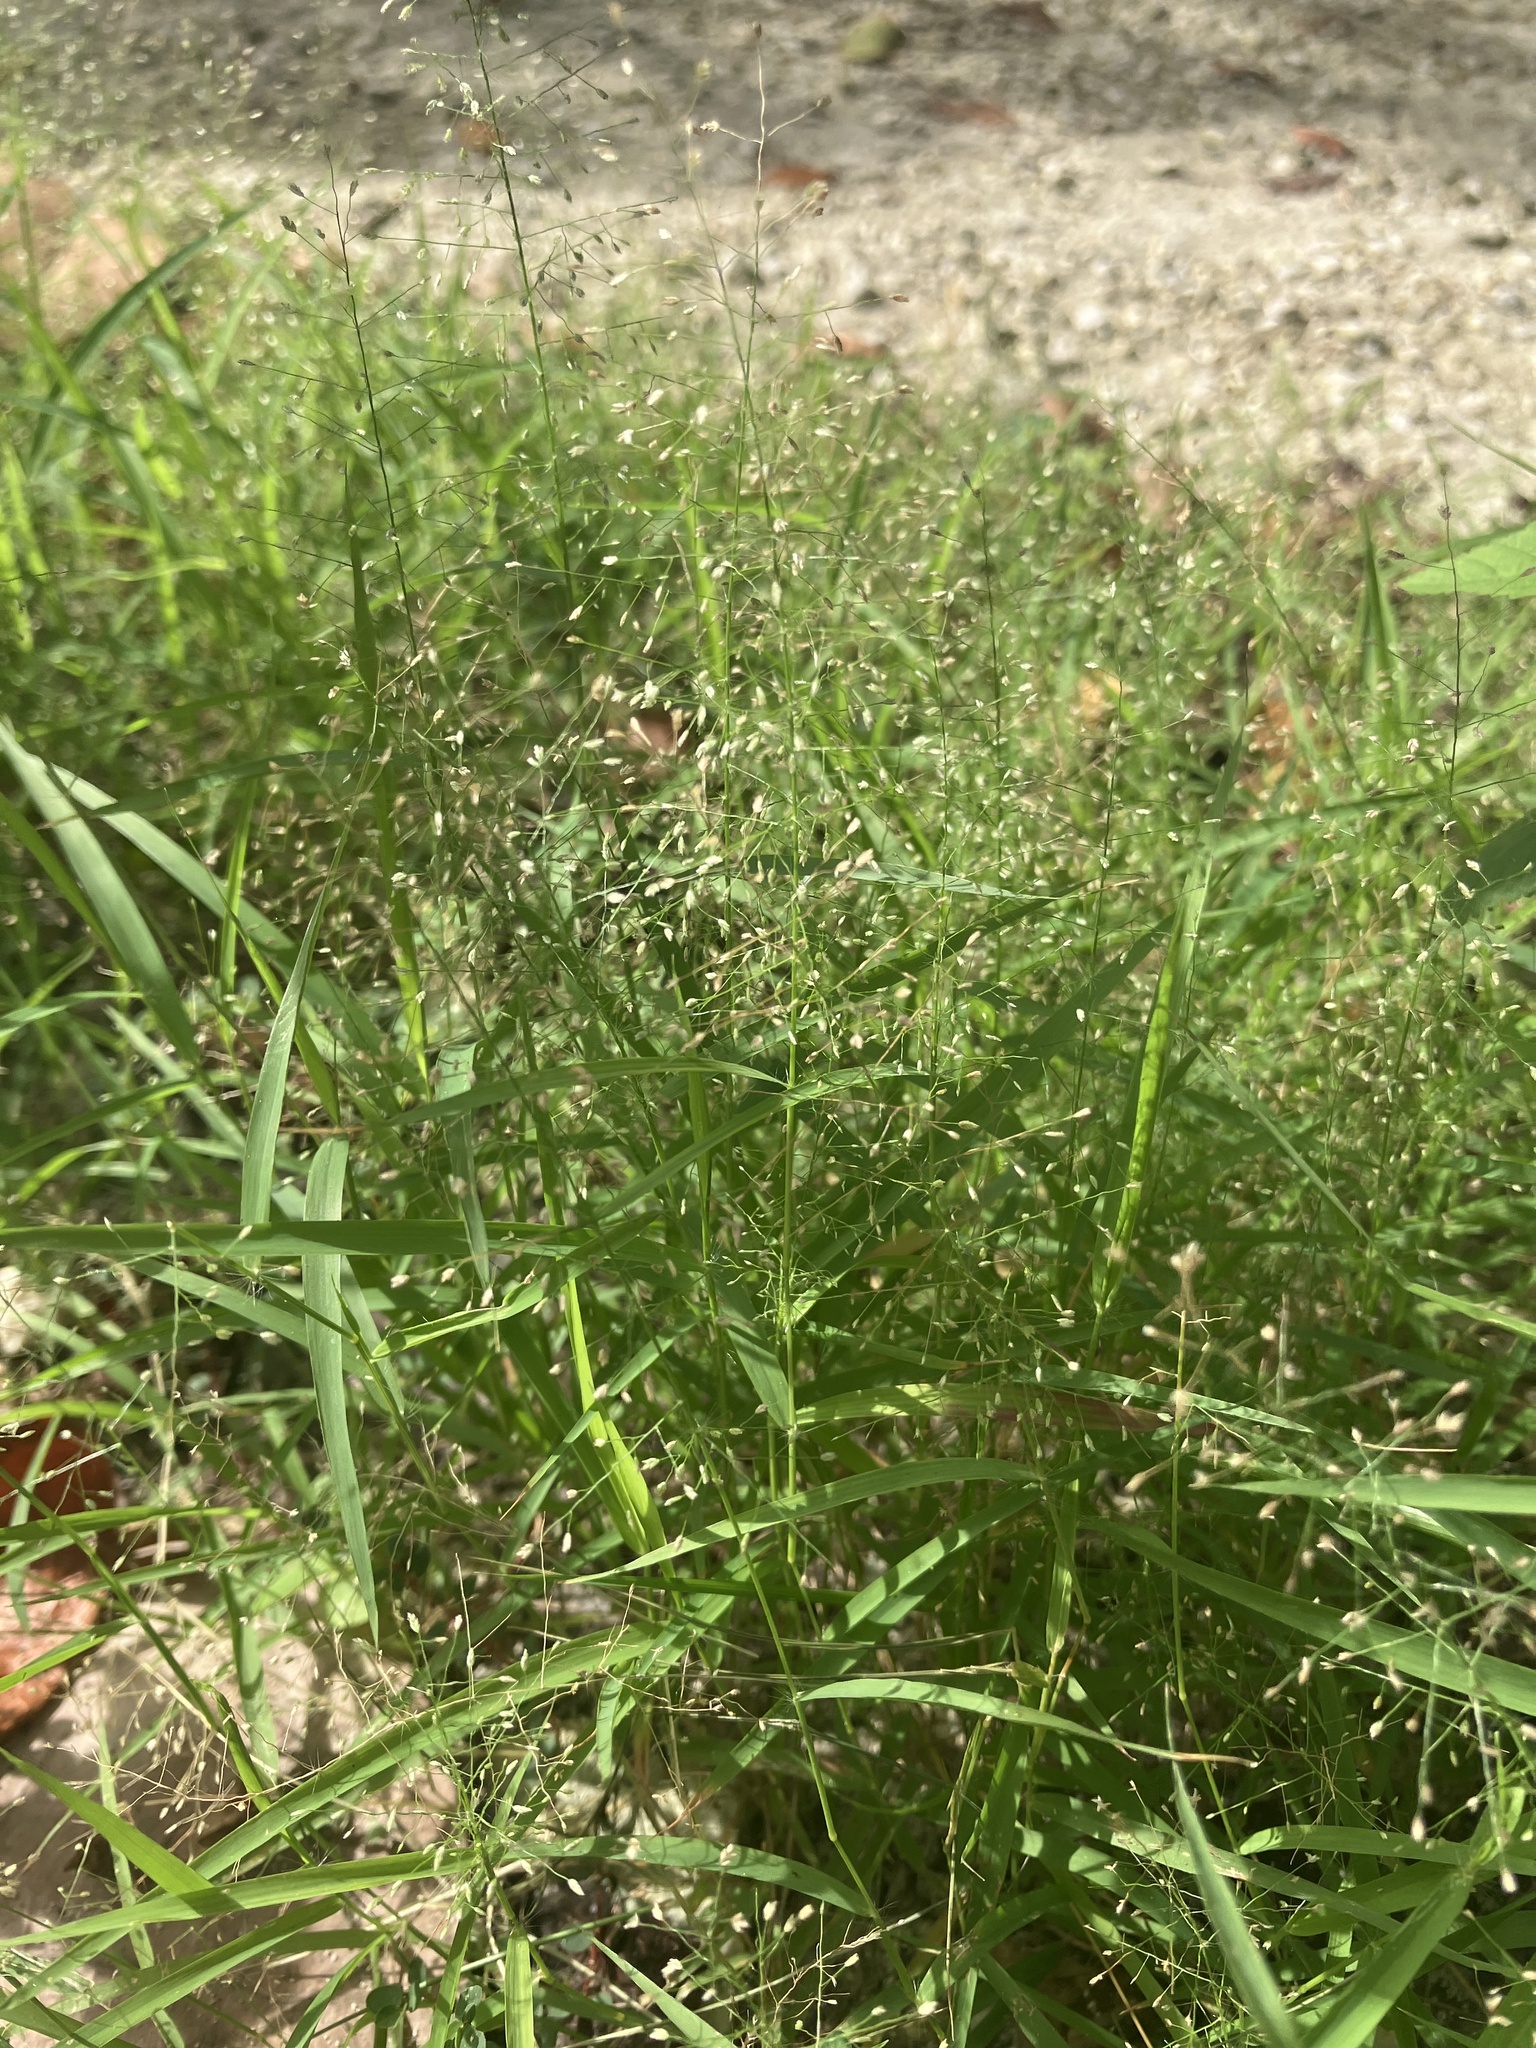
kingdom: Plantae
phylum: Tracheophyta
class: Liliopsida
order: Poales
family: Poaceae
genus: Eragrostis
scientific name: Eragrostis tenella
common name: Japanese lovegrass
